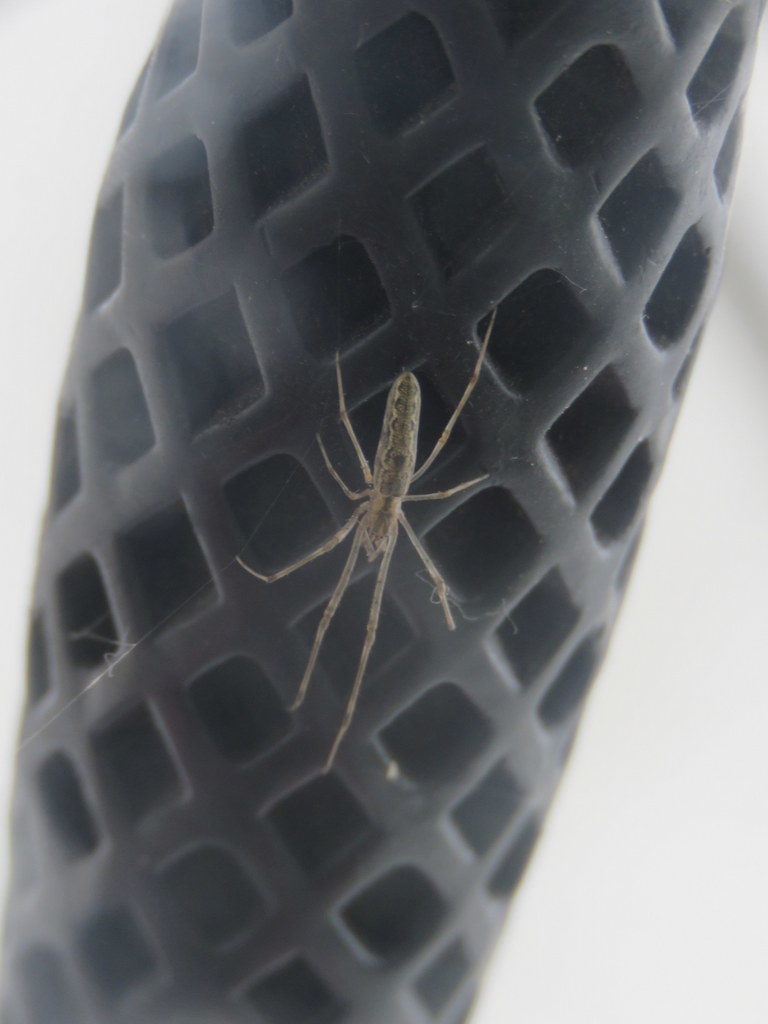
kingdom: Animalia
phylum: Arthropoda
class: Arachnida
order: Araneae
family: Tetragnathidae
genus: Tetragnatha
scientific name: Tetragnatha
